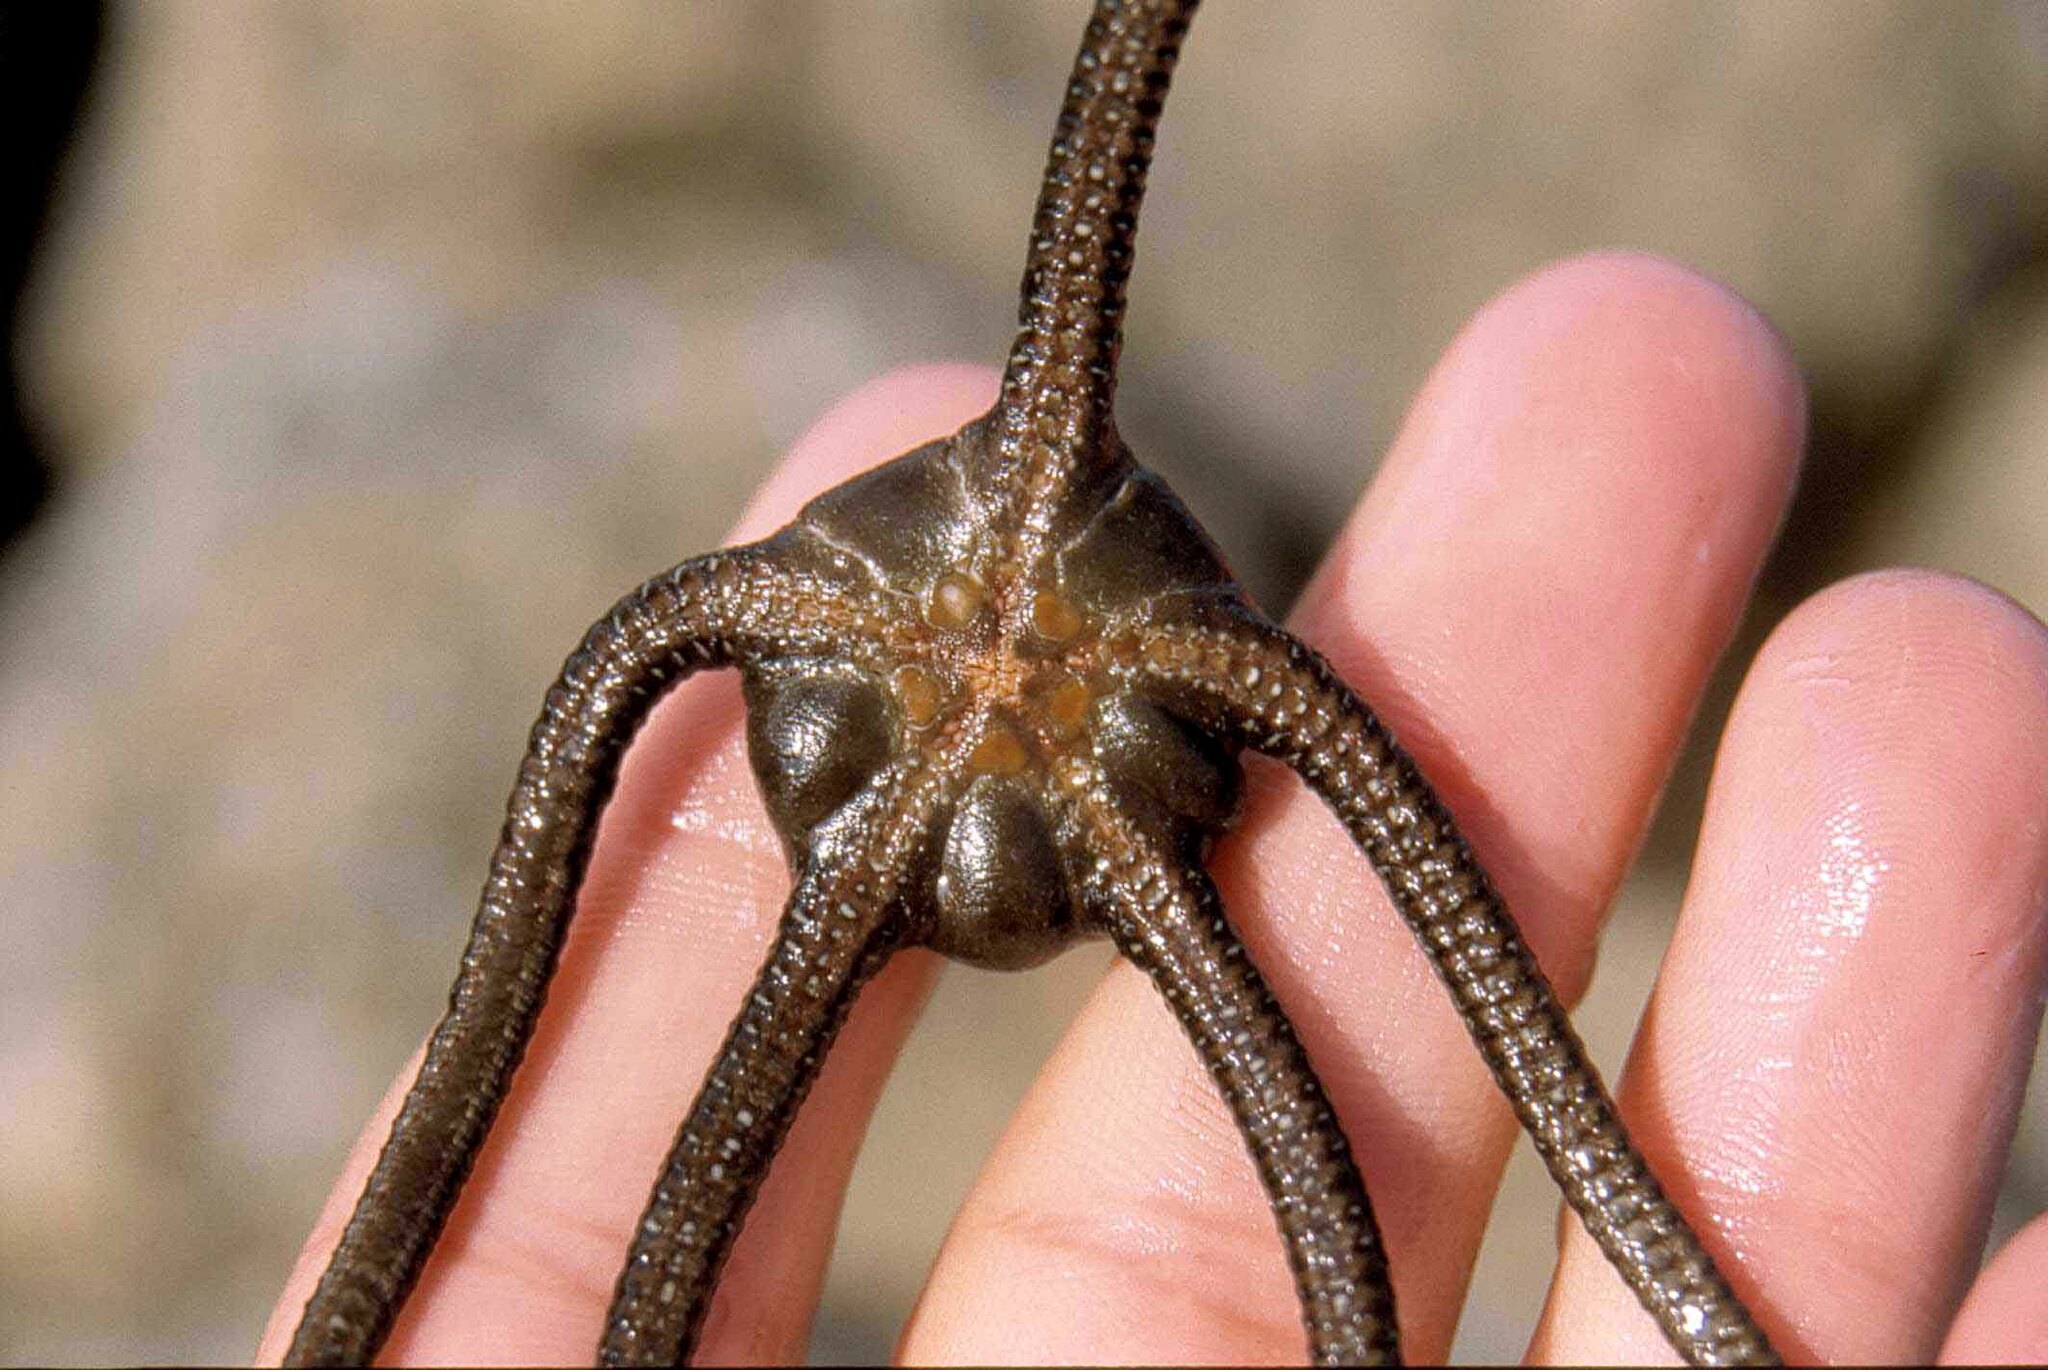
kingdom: Animalia
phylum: Echinodermata
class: Ophiuroidea
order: Ophiacanthida
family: Ophiodermatidae
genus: Ophioderma
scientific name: Ophioderma longicaudum
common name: Smooth brittle-star
